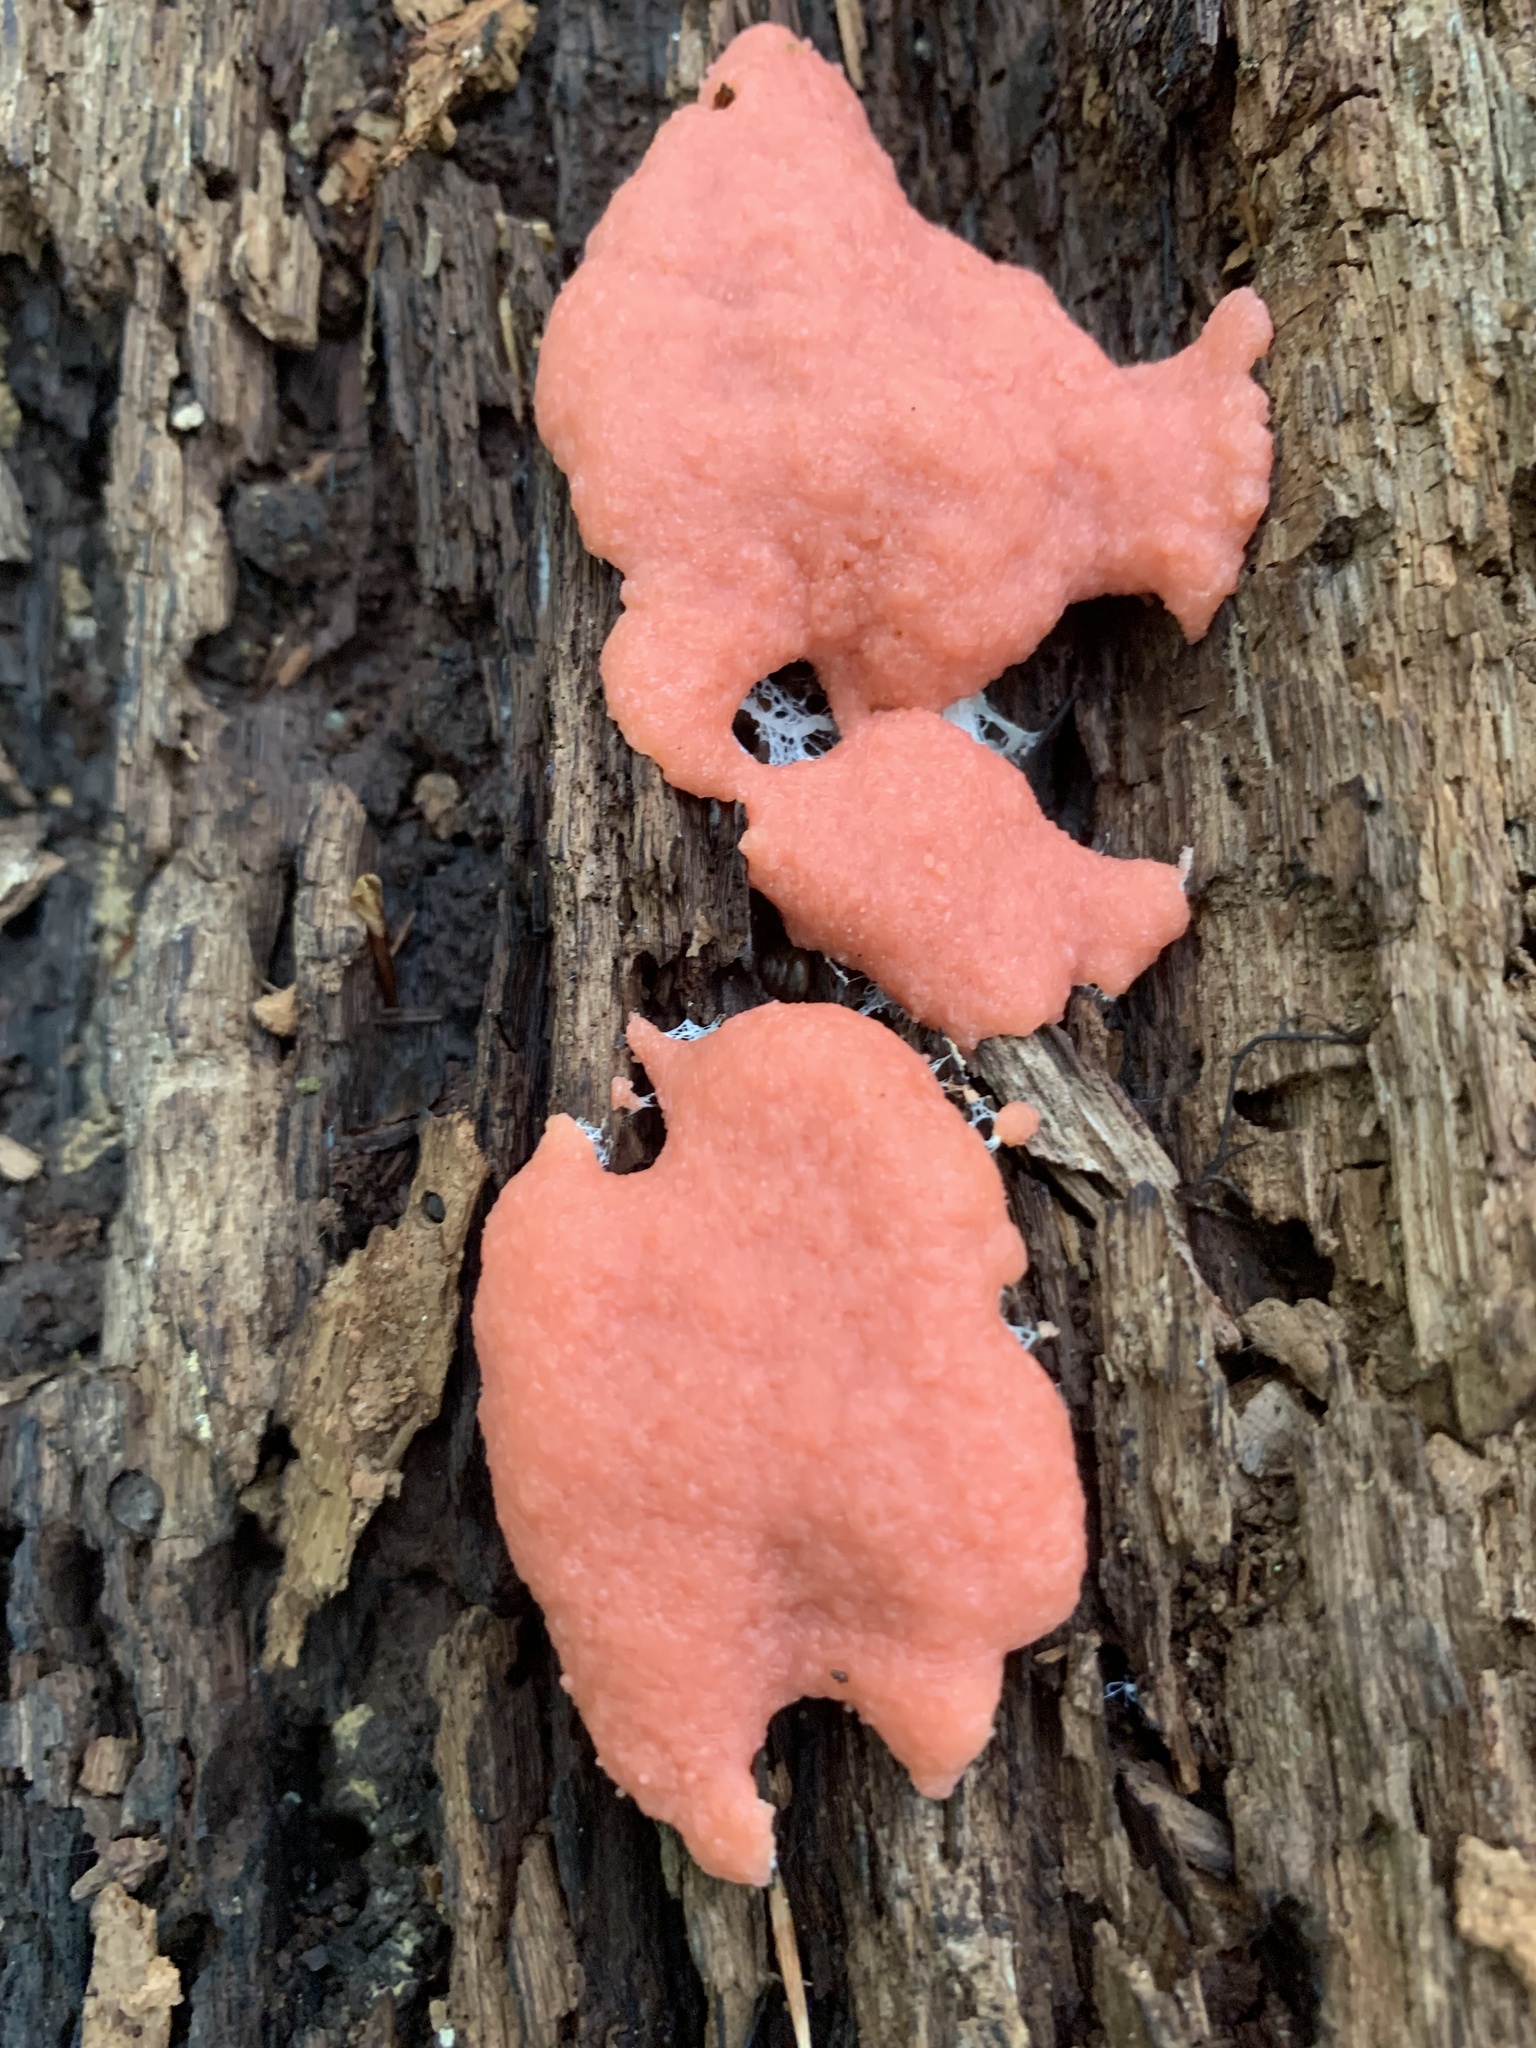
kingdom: Protozoa
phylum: Mycetozoa
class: Myxomycetes
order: Cribrariales
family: Tubiferaceae
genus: Tubifera
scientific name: Tubifera ferruginosa
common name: Red raspberry slime mold
